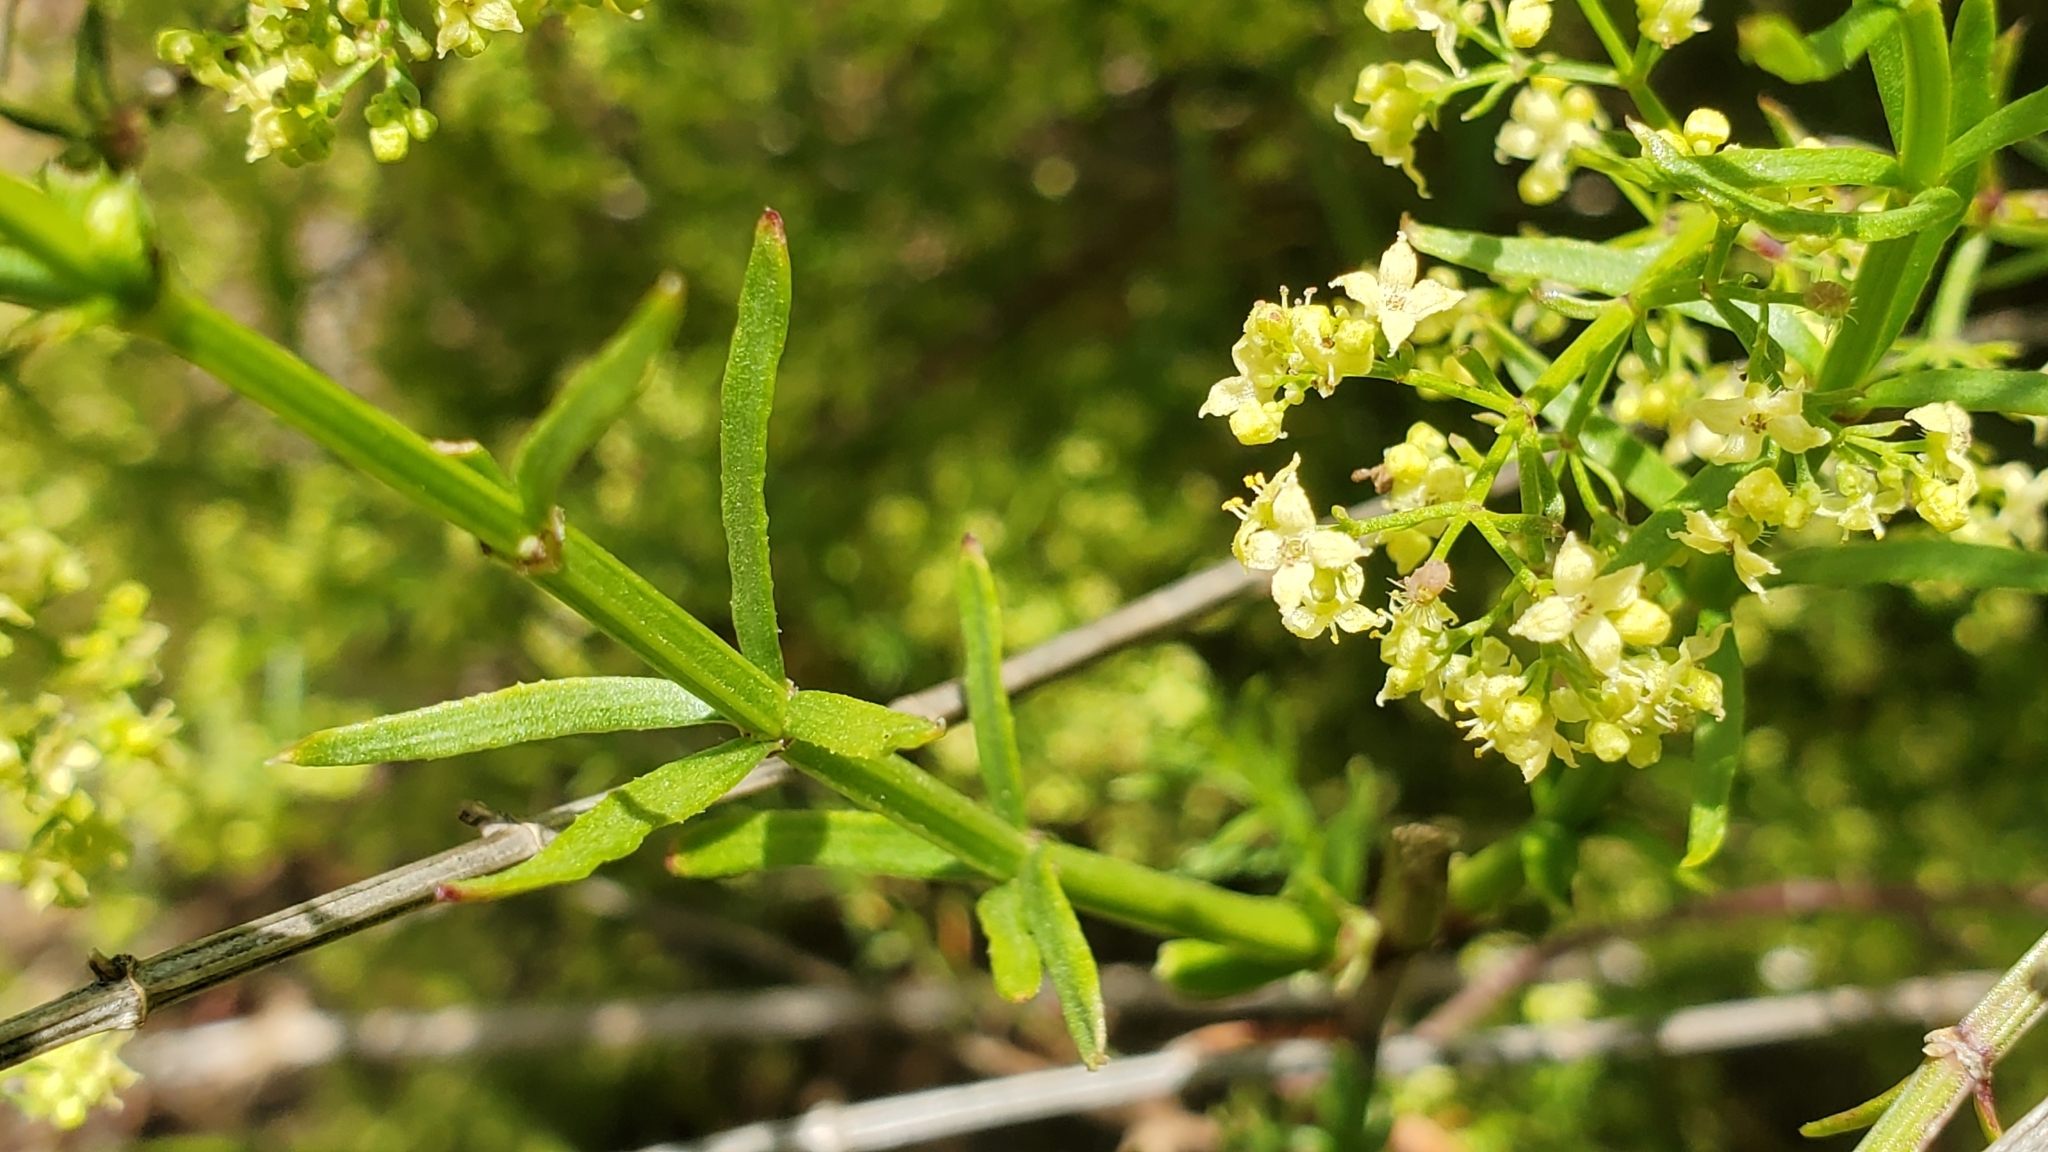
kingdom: Plantae
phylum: Tracheophyta
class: Magnoliopsida
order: Gentianales
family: Rubiaceae
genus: Galium
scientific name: Galium angustifolium
